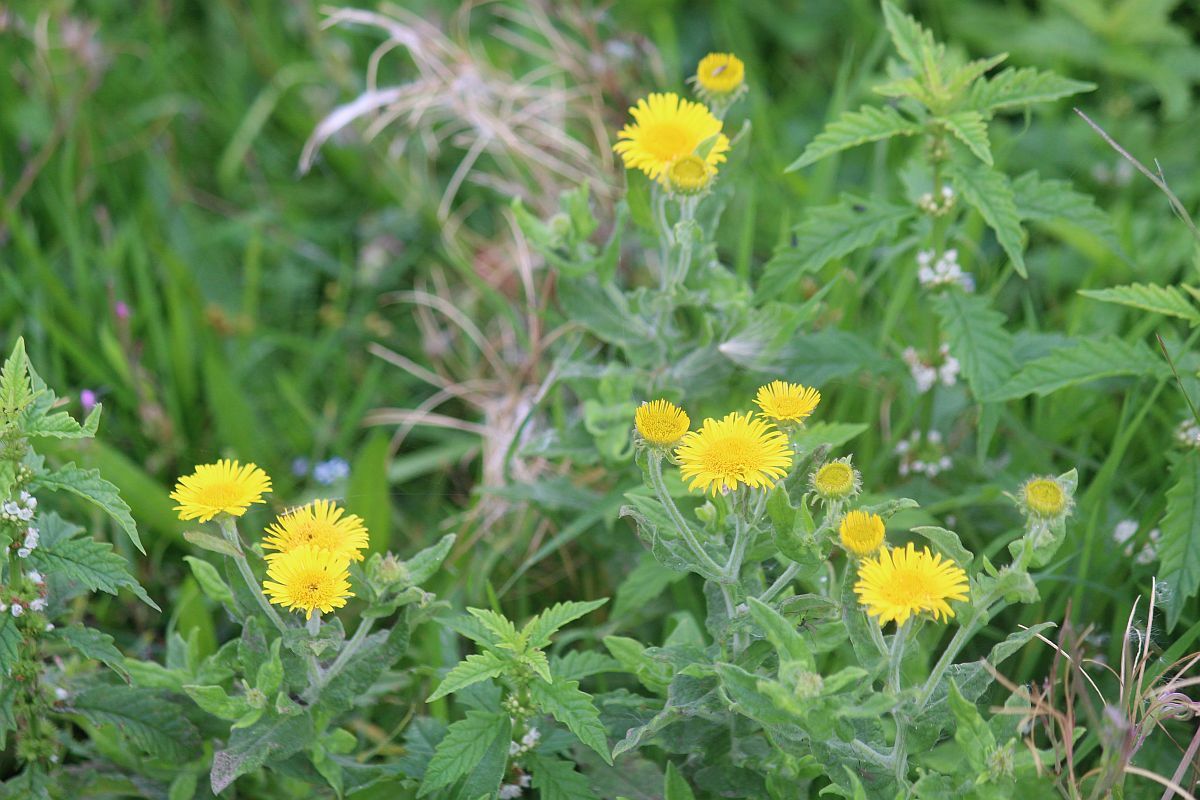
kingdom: Plantae
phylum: Tracheophyta
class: Magnoliopsida
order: Asterales
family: Asteraceae
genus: Pulicaria
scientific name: Pulicaria dysenterica
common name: Common fleabane
